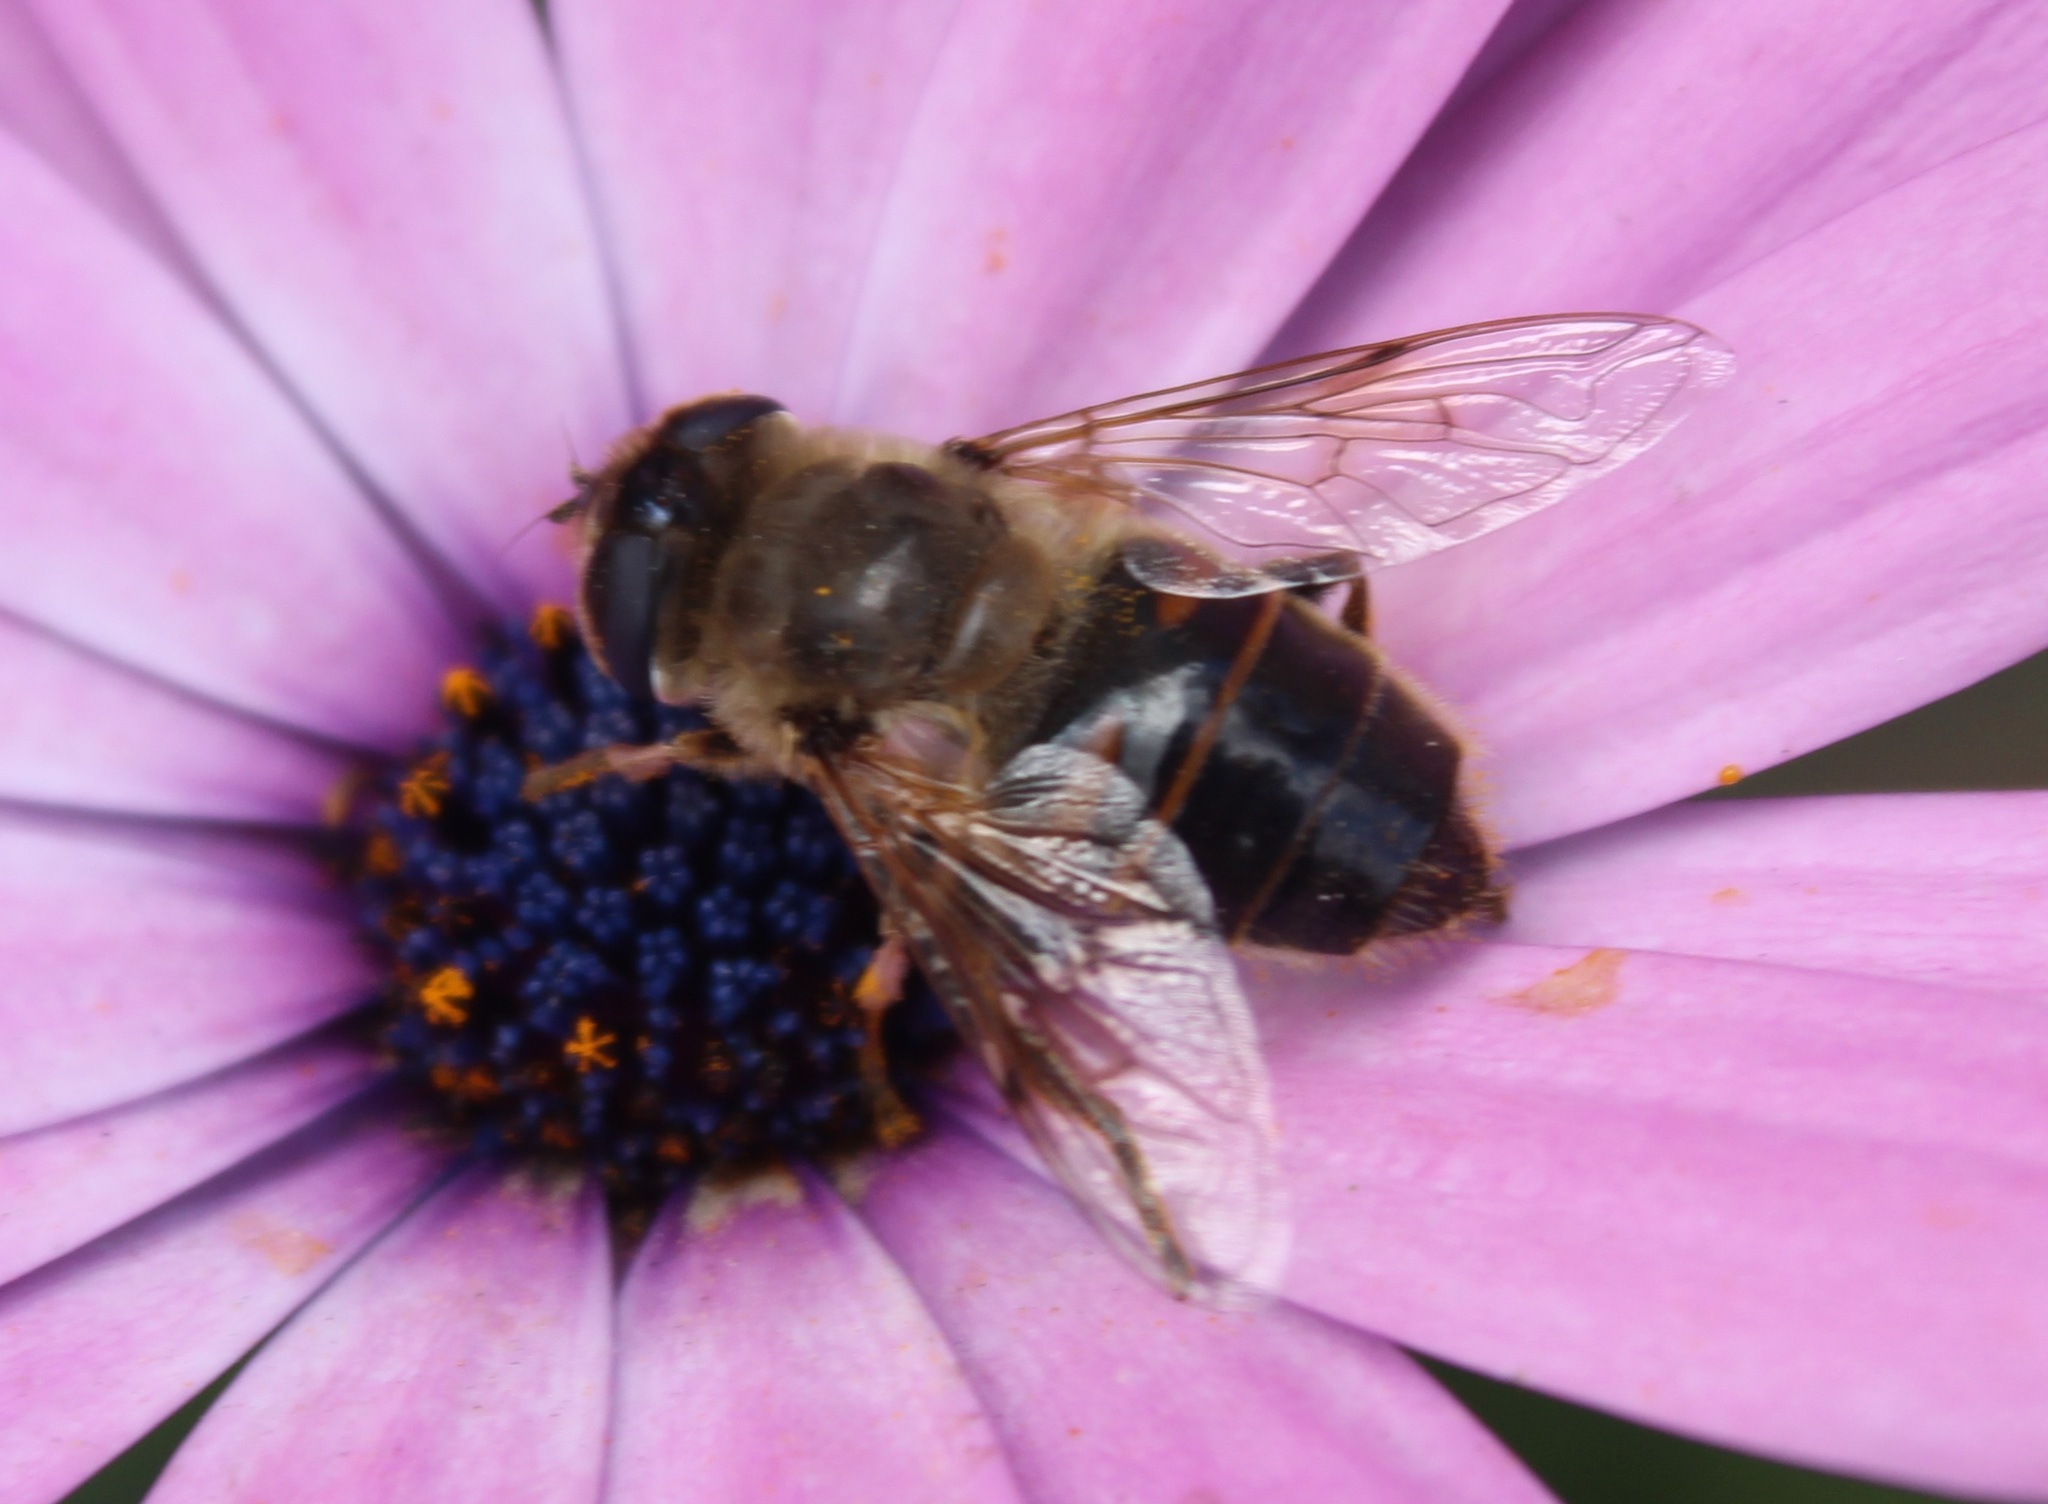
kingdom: Animalia
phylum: Arthropoda
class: Insecta
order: Diptera
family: Syrphidae
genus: Eristalis
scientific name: Eristalis tenax
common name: Drone fly
